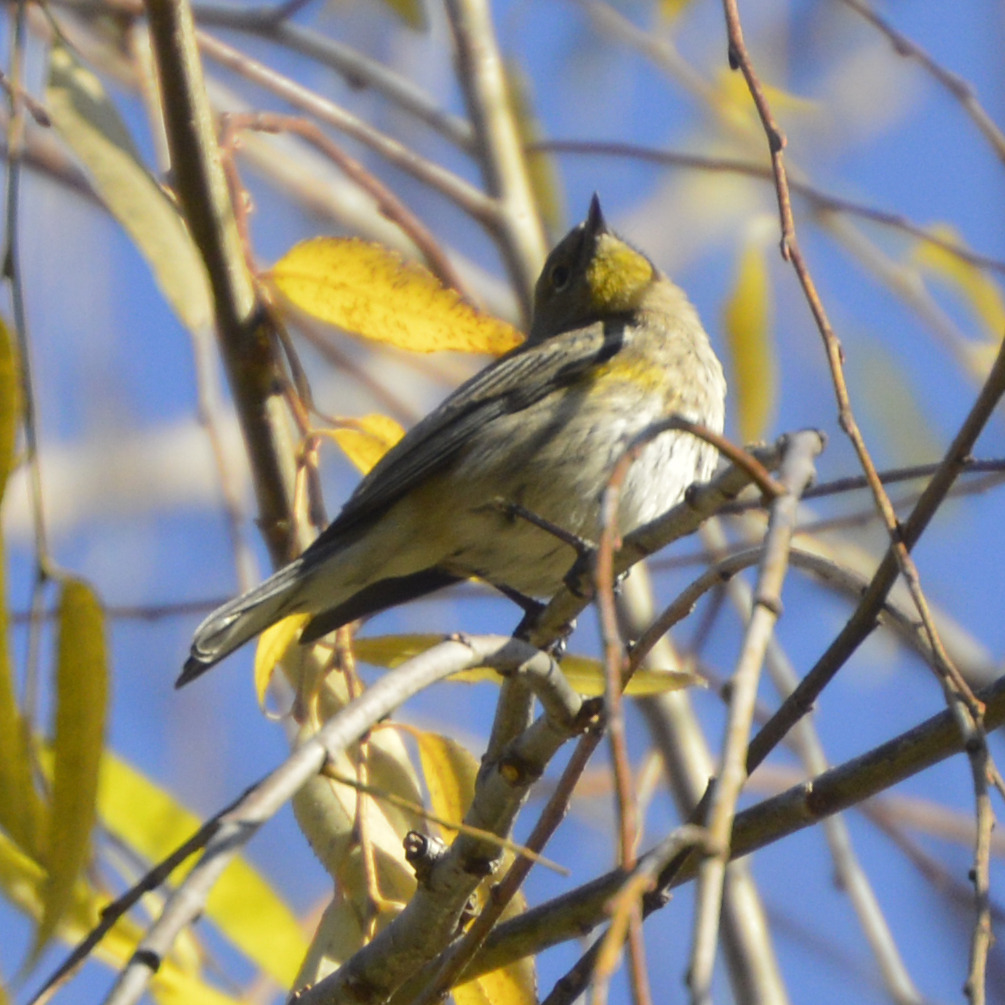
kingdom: Animalia
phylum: Chordata
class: Aves
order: Passeriformes
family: Parulidae
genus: Setophaga
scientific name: Setophaga coronata
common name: Myrtle warbler
